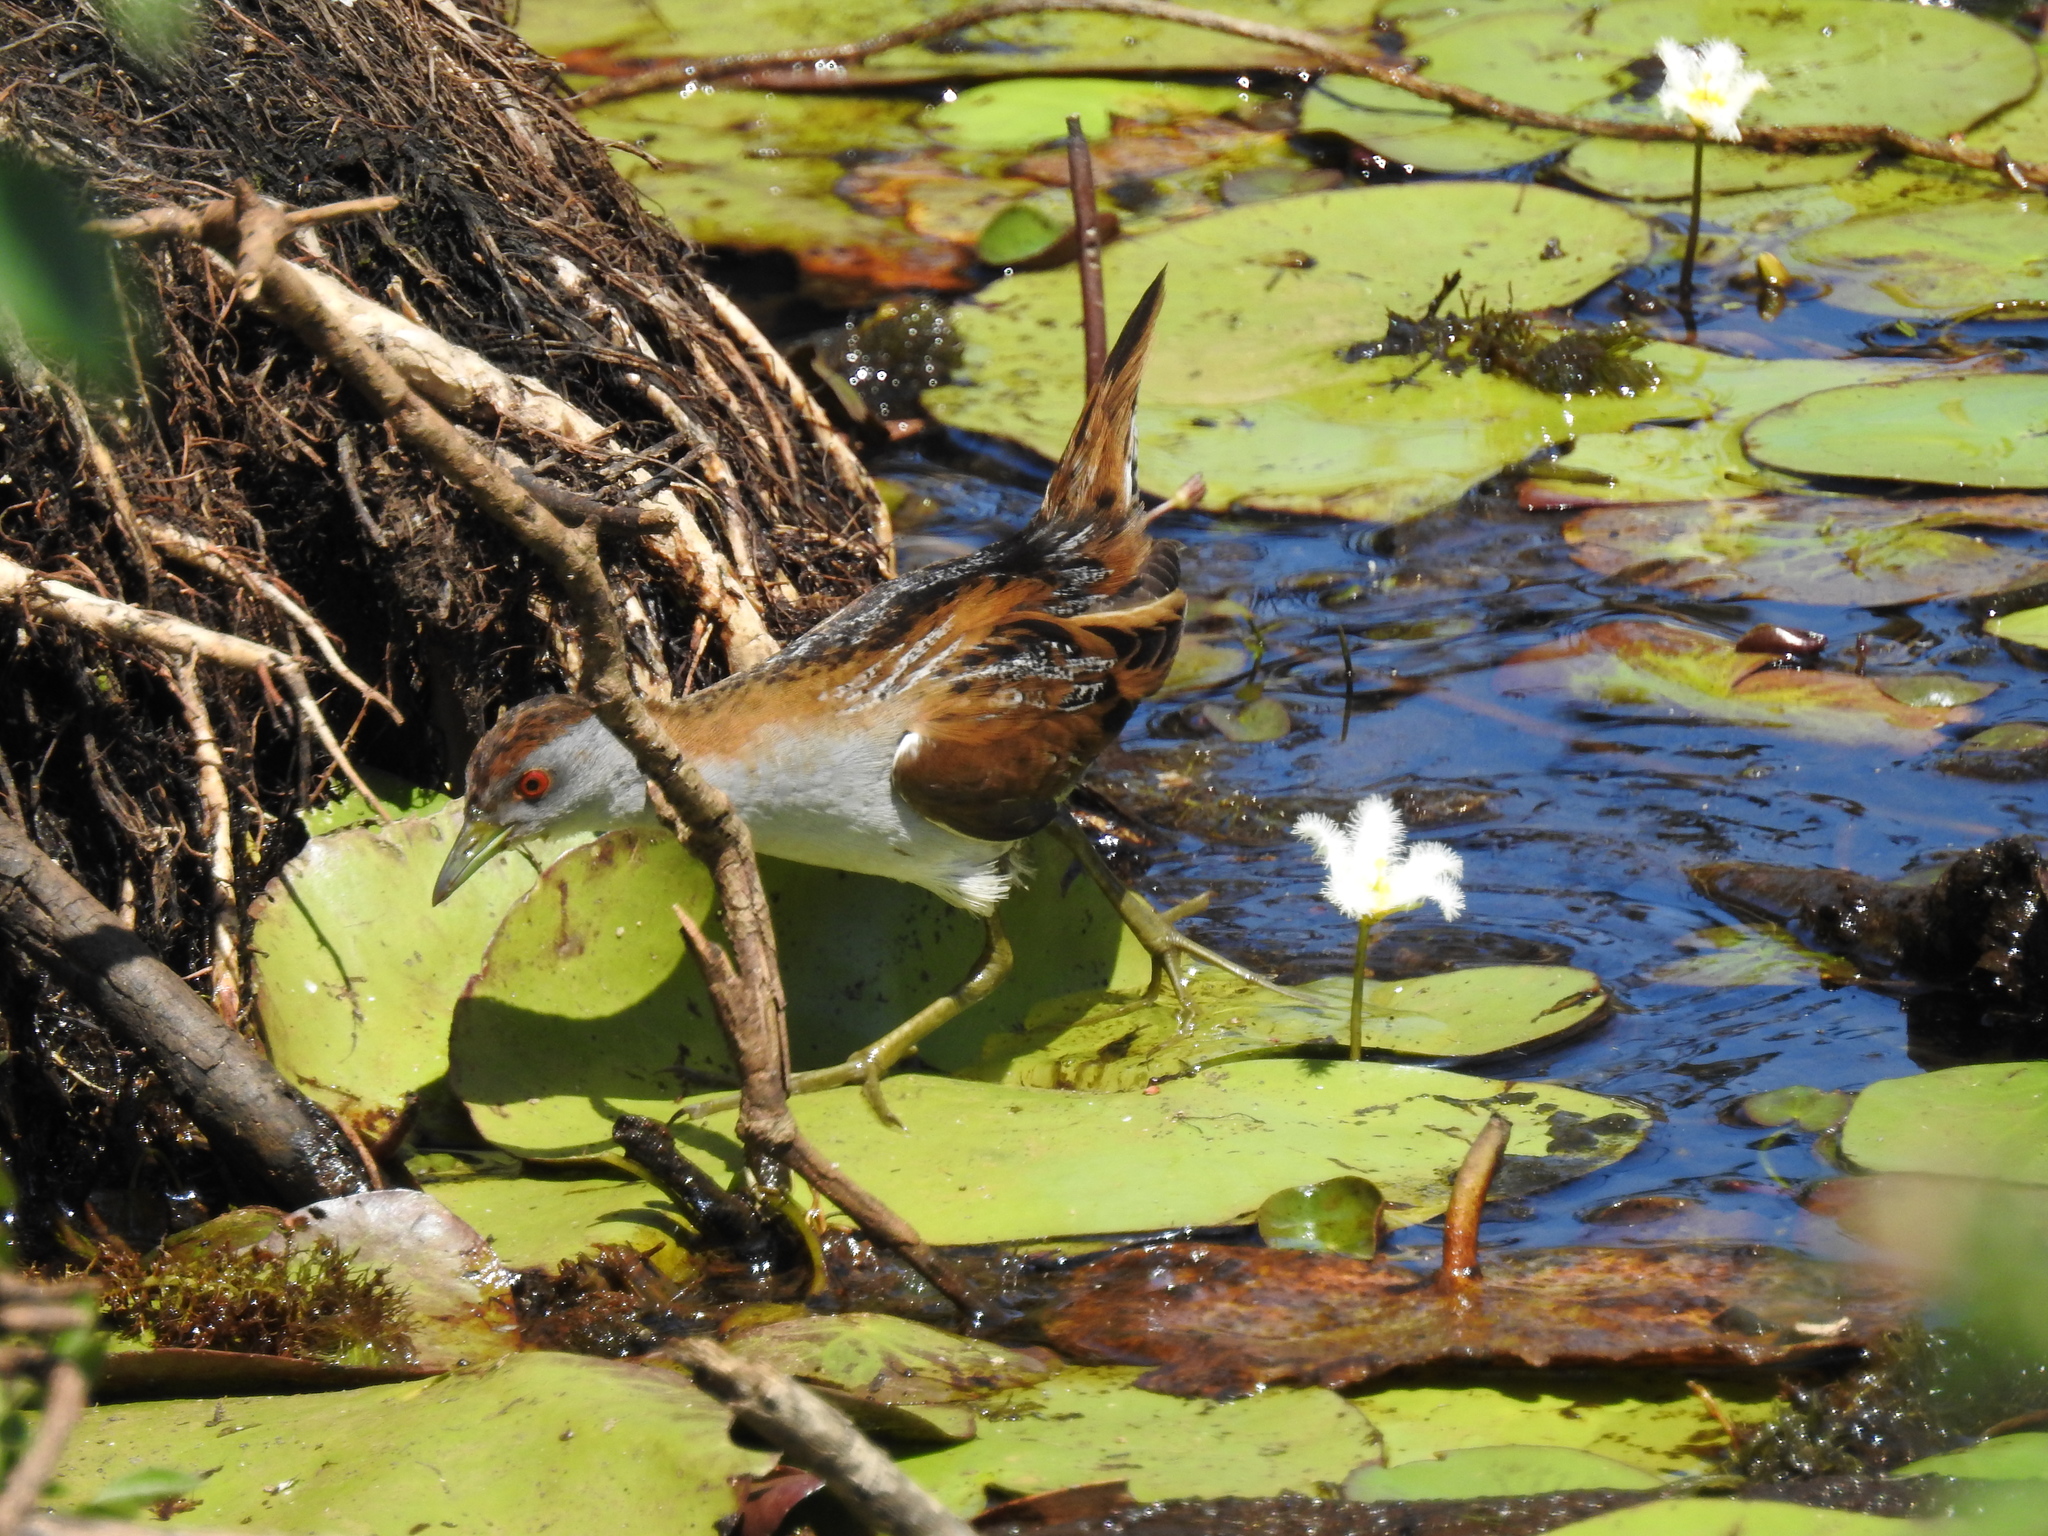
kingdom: Animalia
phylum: Chordata
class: Aves
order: Gruiformes
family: Rallidae
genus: Porzana
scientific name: Porzana pusilla
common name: Baillon's crake
